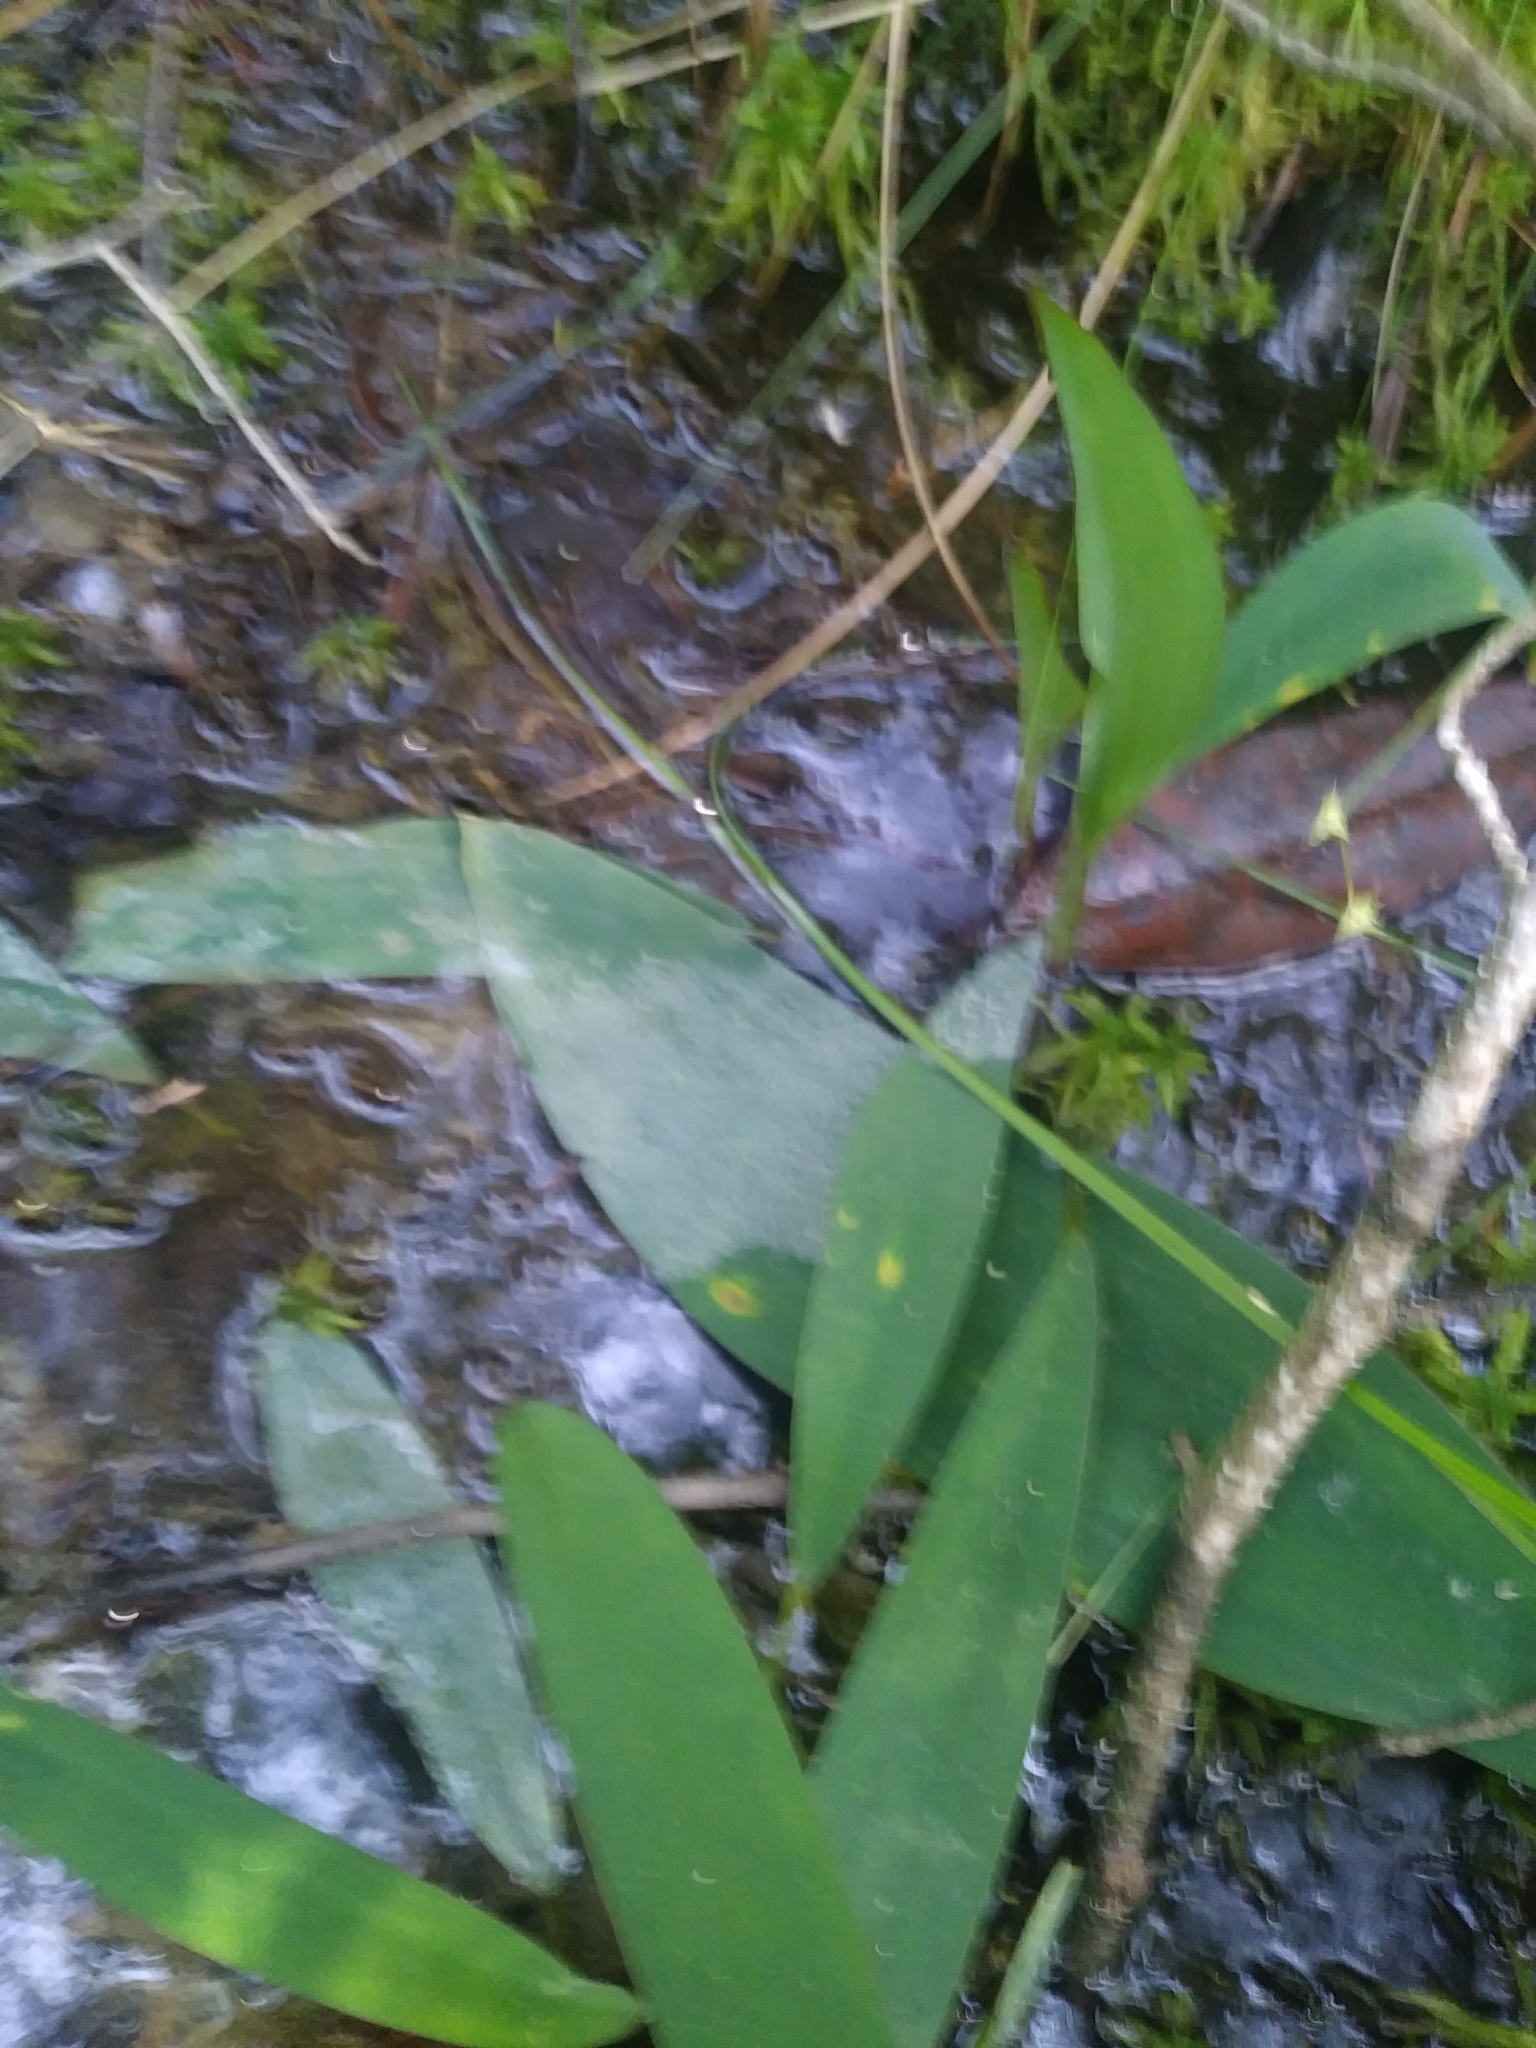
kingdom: Plantae
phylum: Tracheophyta
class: Liliopsida
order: Alismatales
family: Araceae
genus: Orontium
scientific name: Orontium aquaticum
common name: Golden-club
